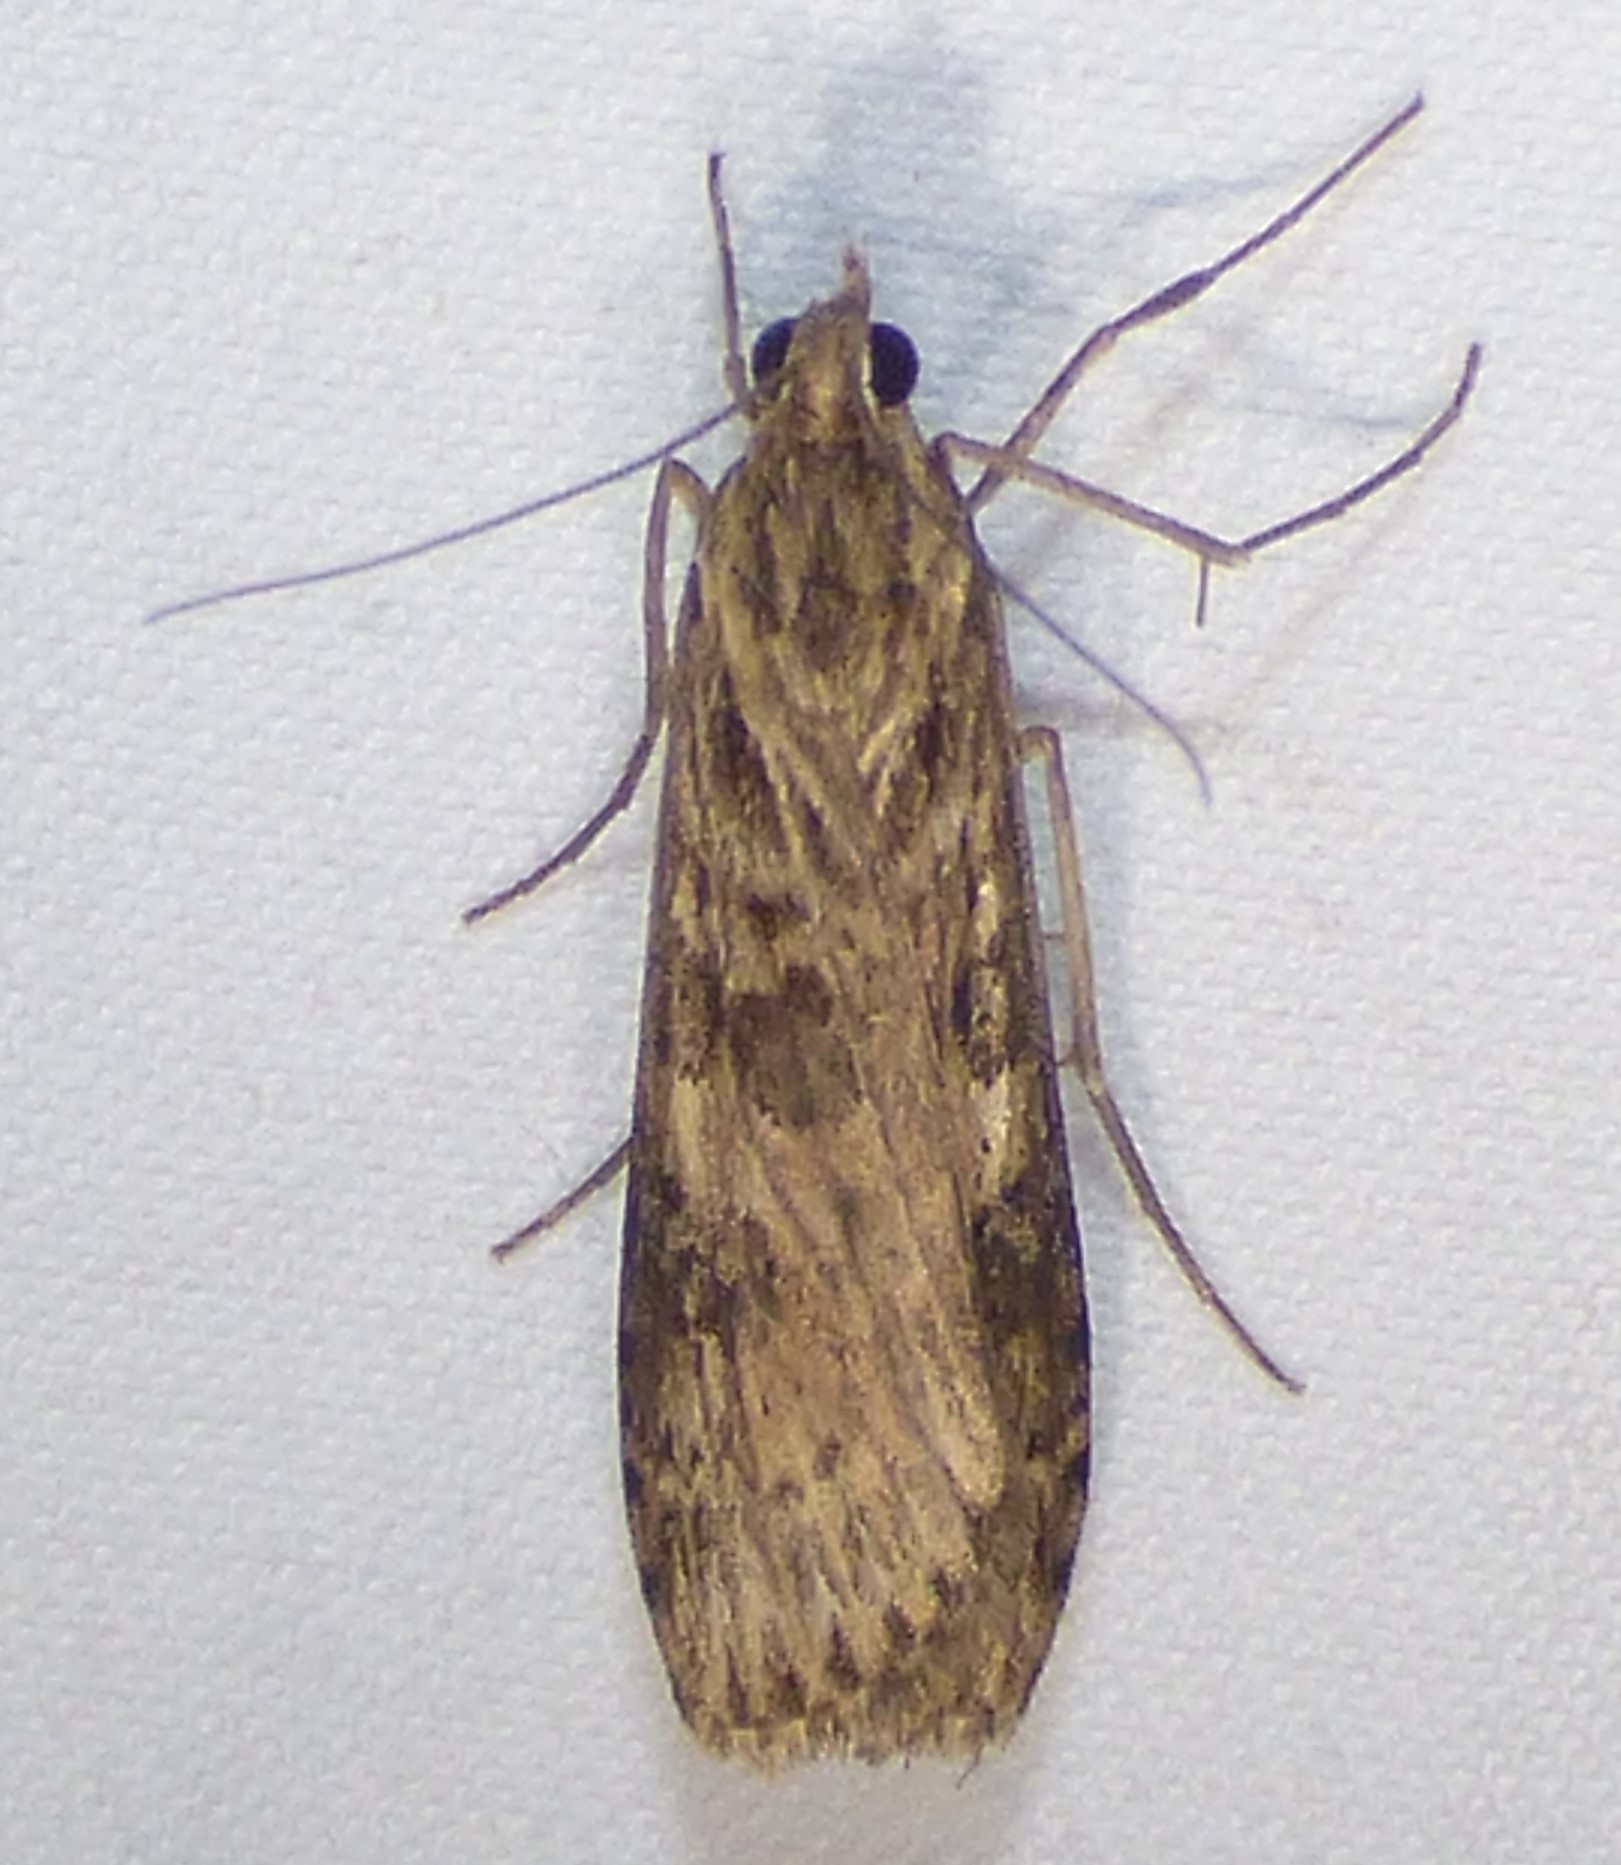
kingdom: Animalia
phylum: Arthropoda
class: Insecta
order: Lepidoptera
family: Crambidae
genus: Nomophila
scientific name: Nomophila nearctica
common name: American rush veneer
